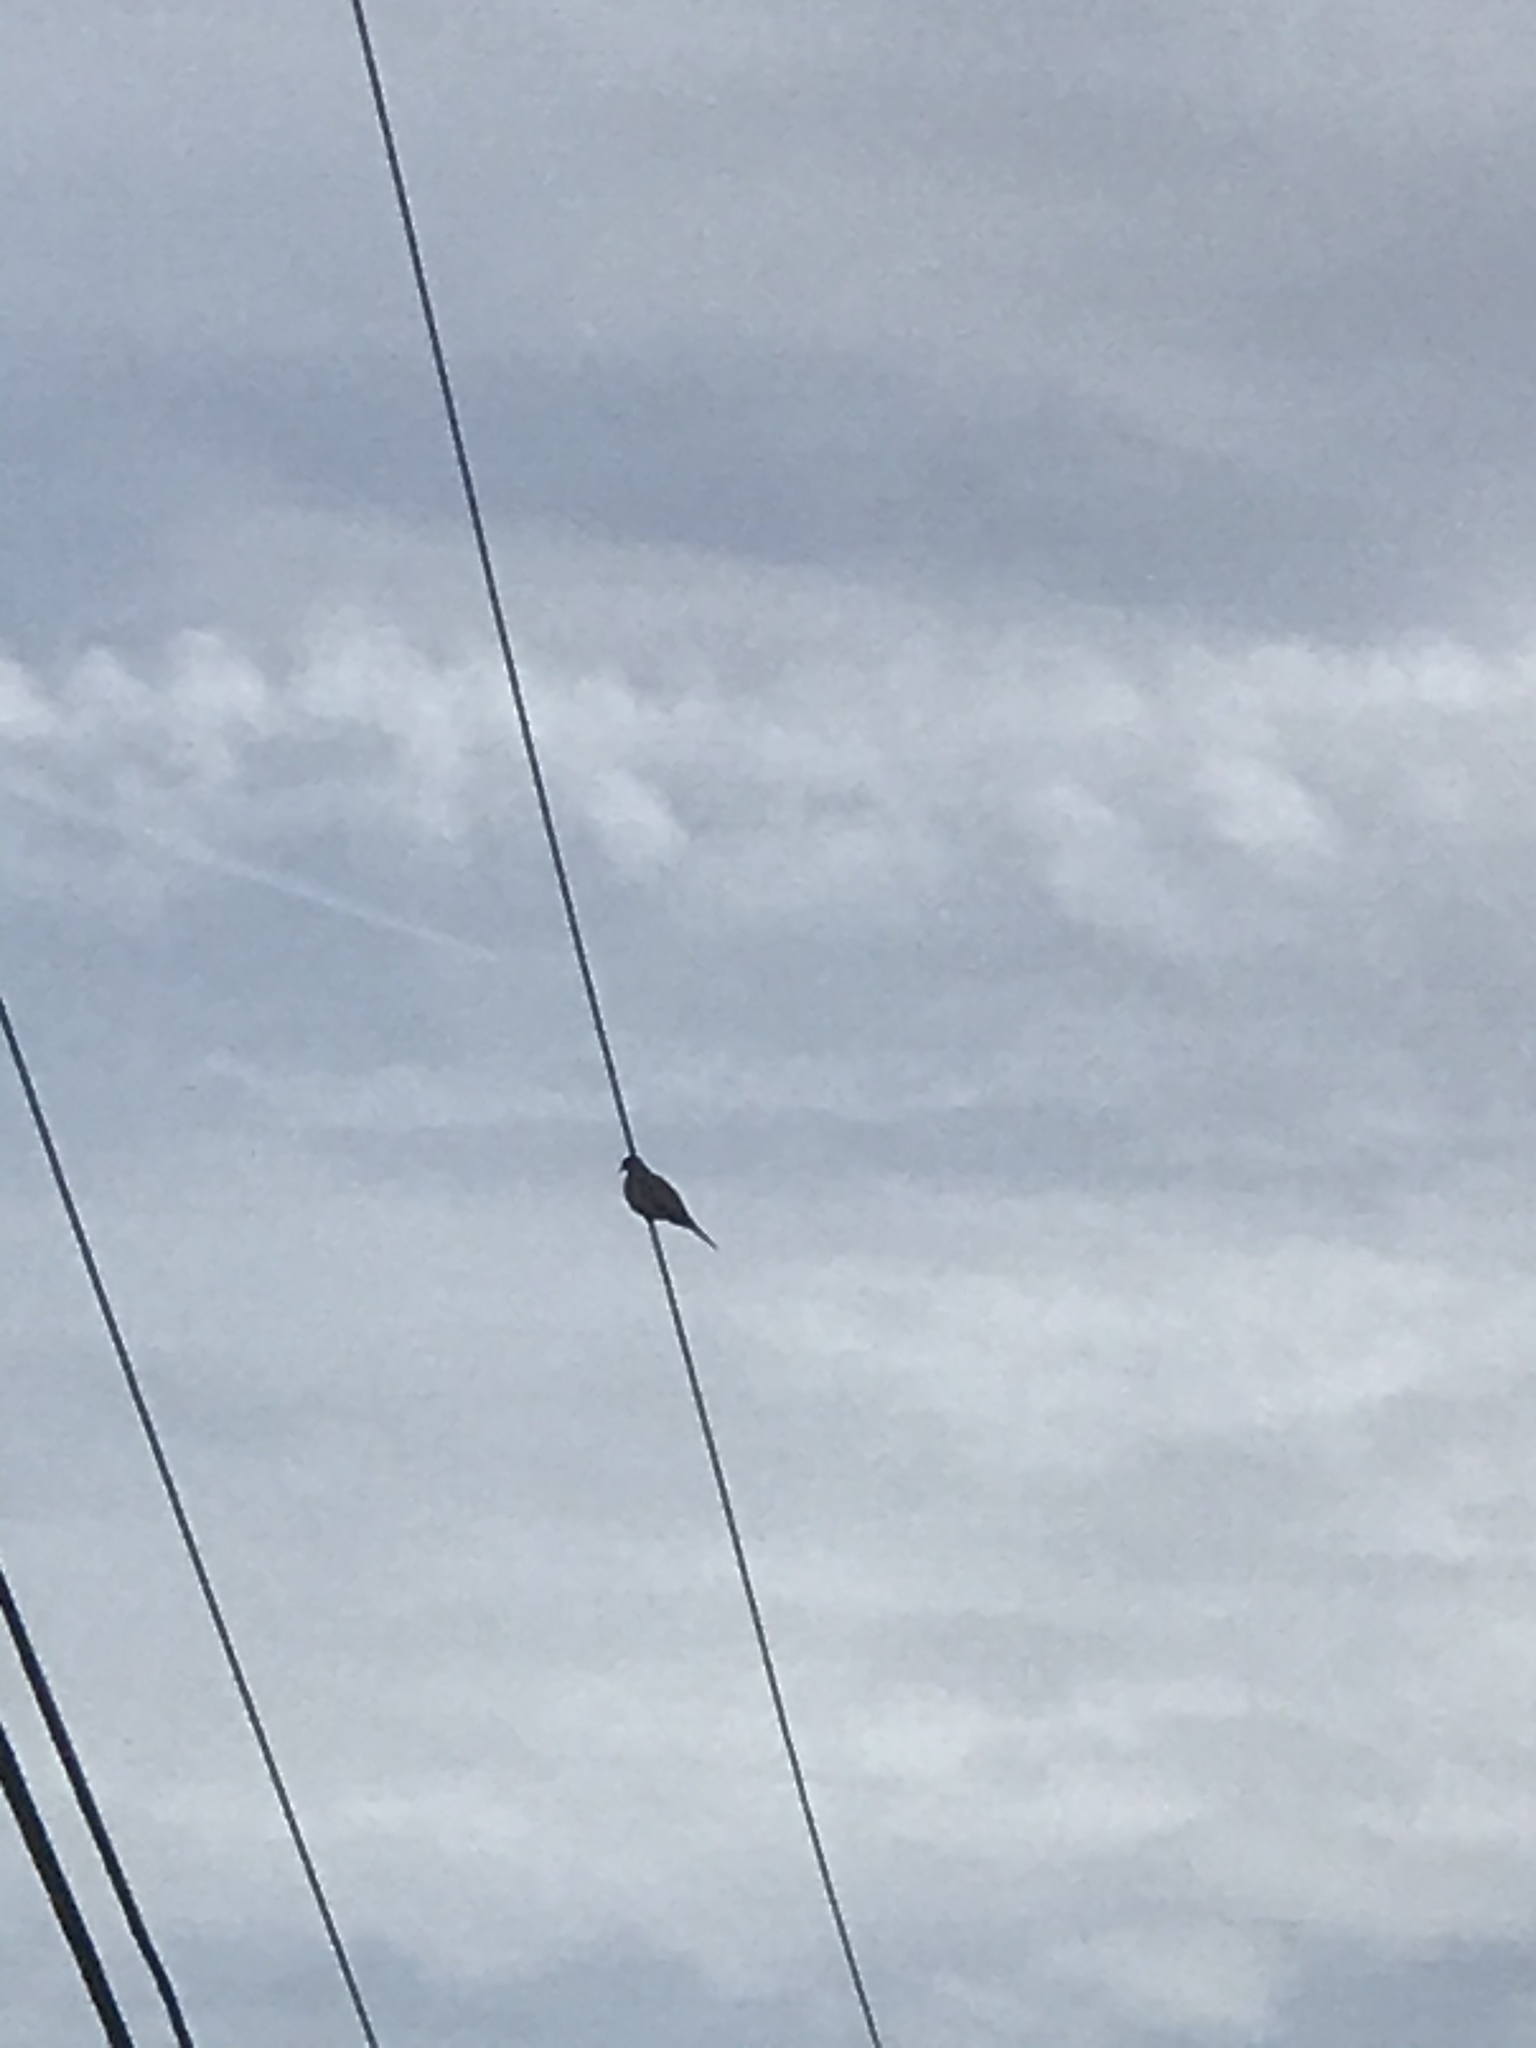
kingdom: Animalia
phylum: Chordata
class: Aves
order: Columbiformes
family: Columbidae
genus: Zenaida
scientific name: Zenaida macroura
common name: Mourning dove
